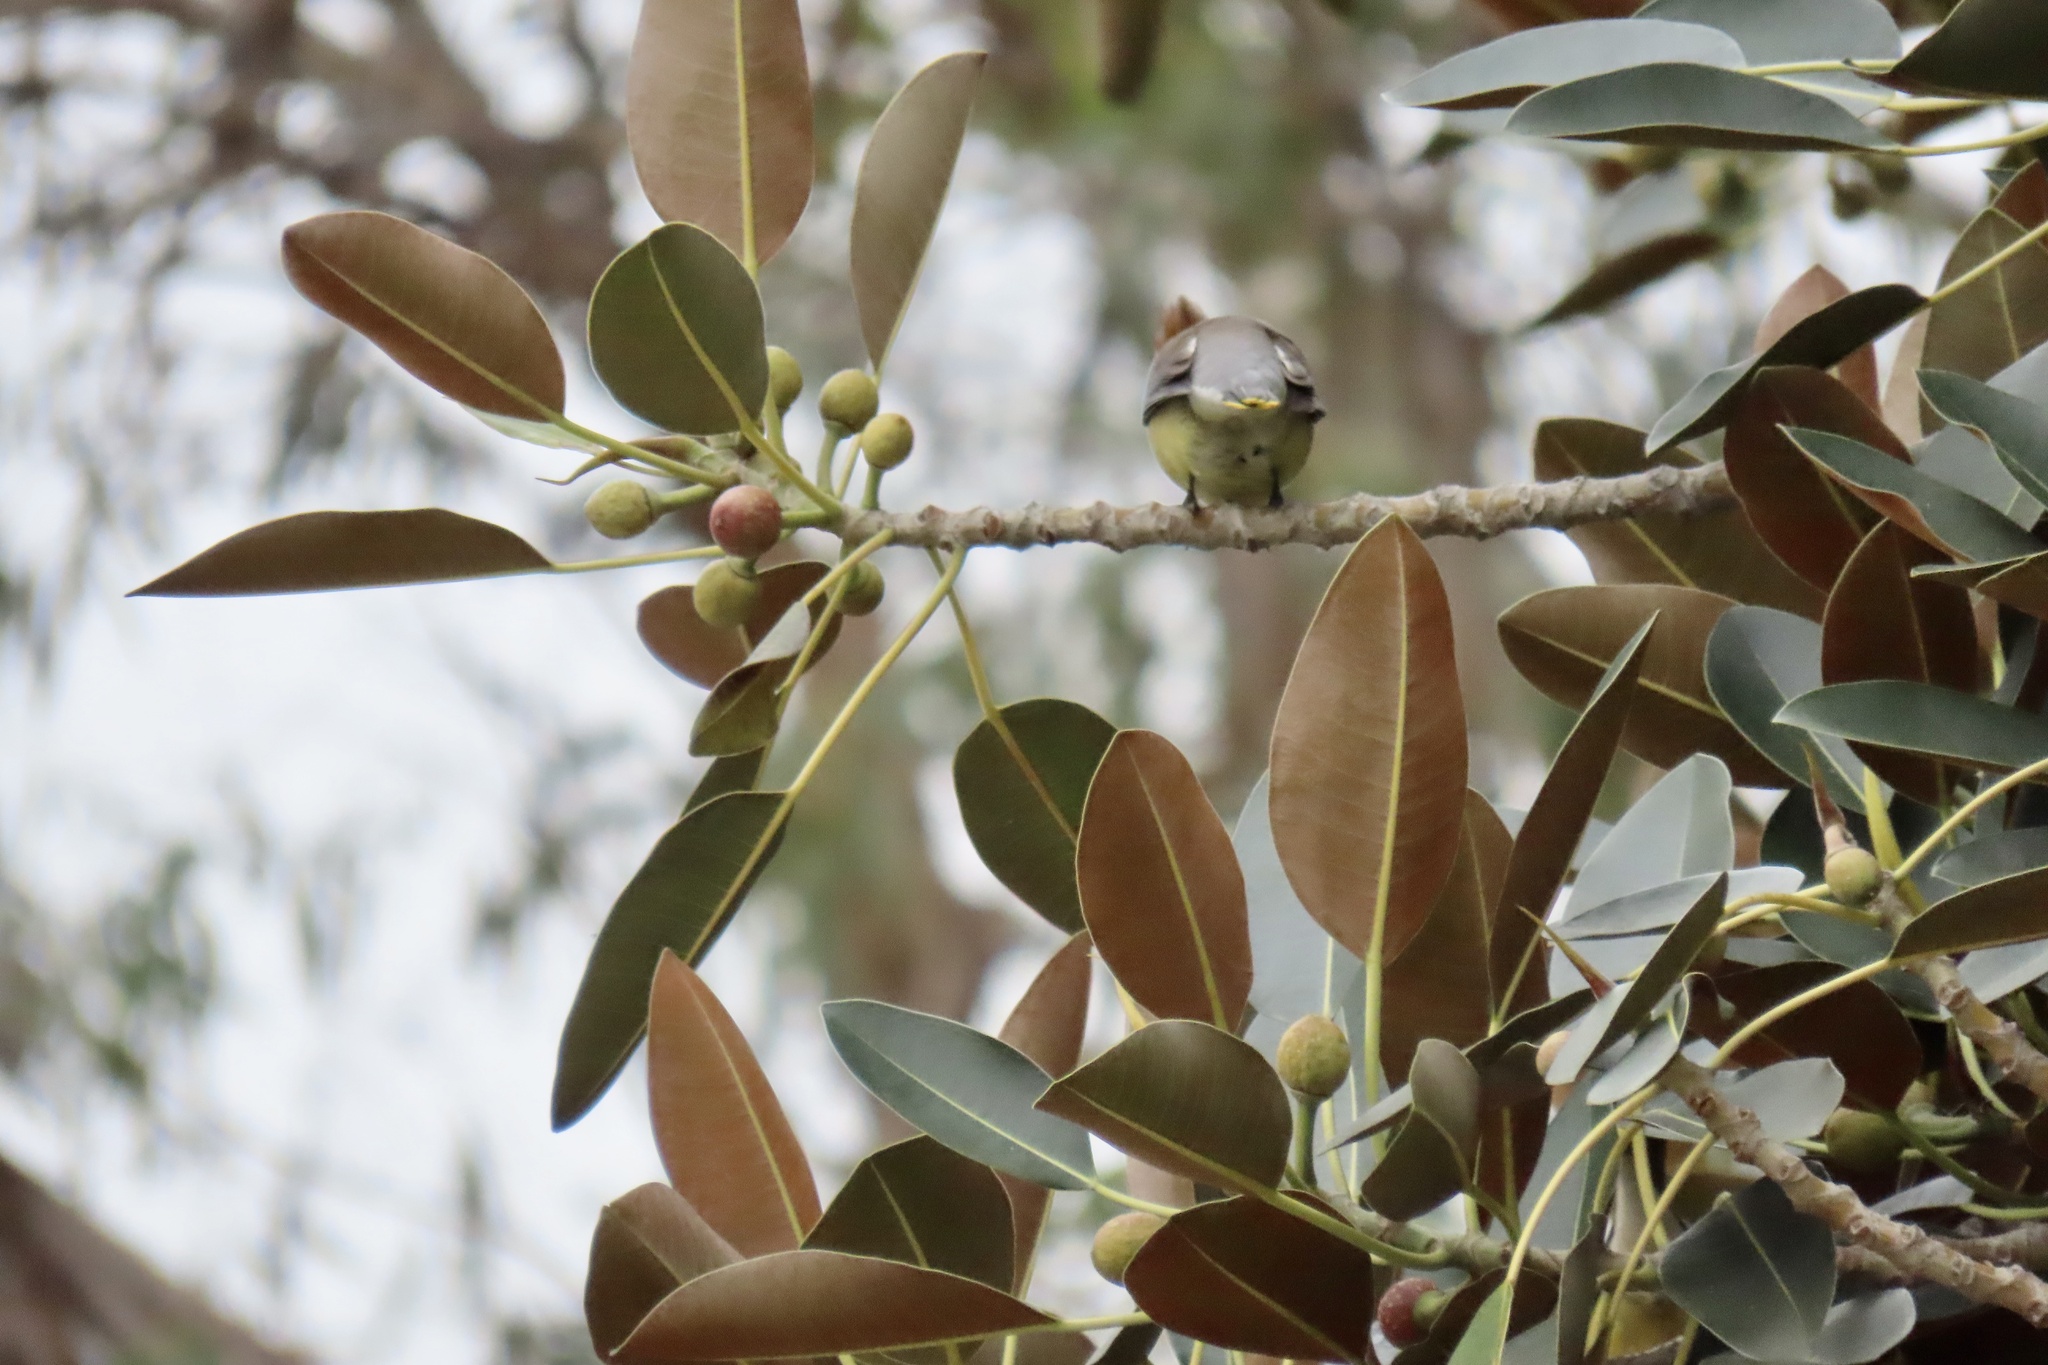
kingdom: Animalia
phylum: Chordata
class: Aves
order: Passeriformes
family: Bombycillidae
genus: Bombycilla
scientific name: Bombycilla cedrorum
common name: Cedar waxwing
